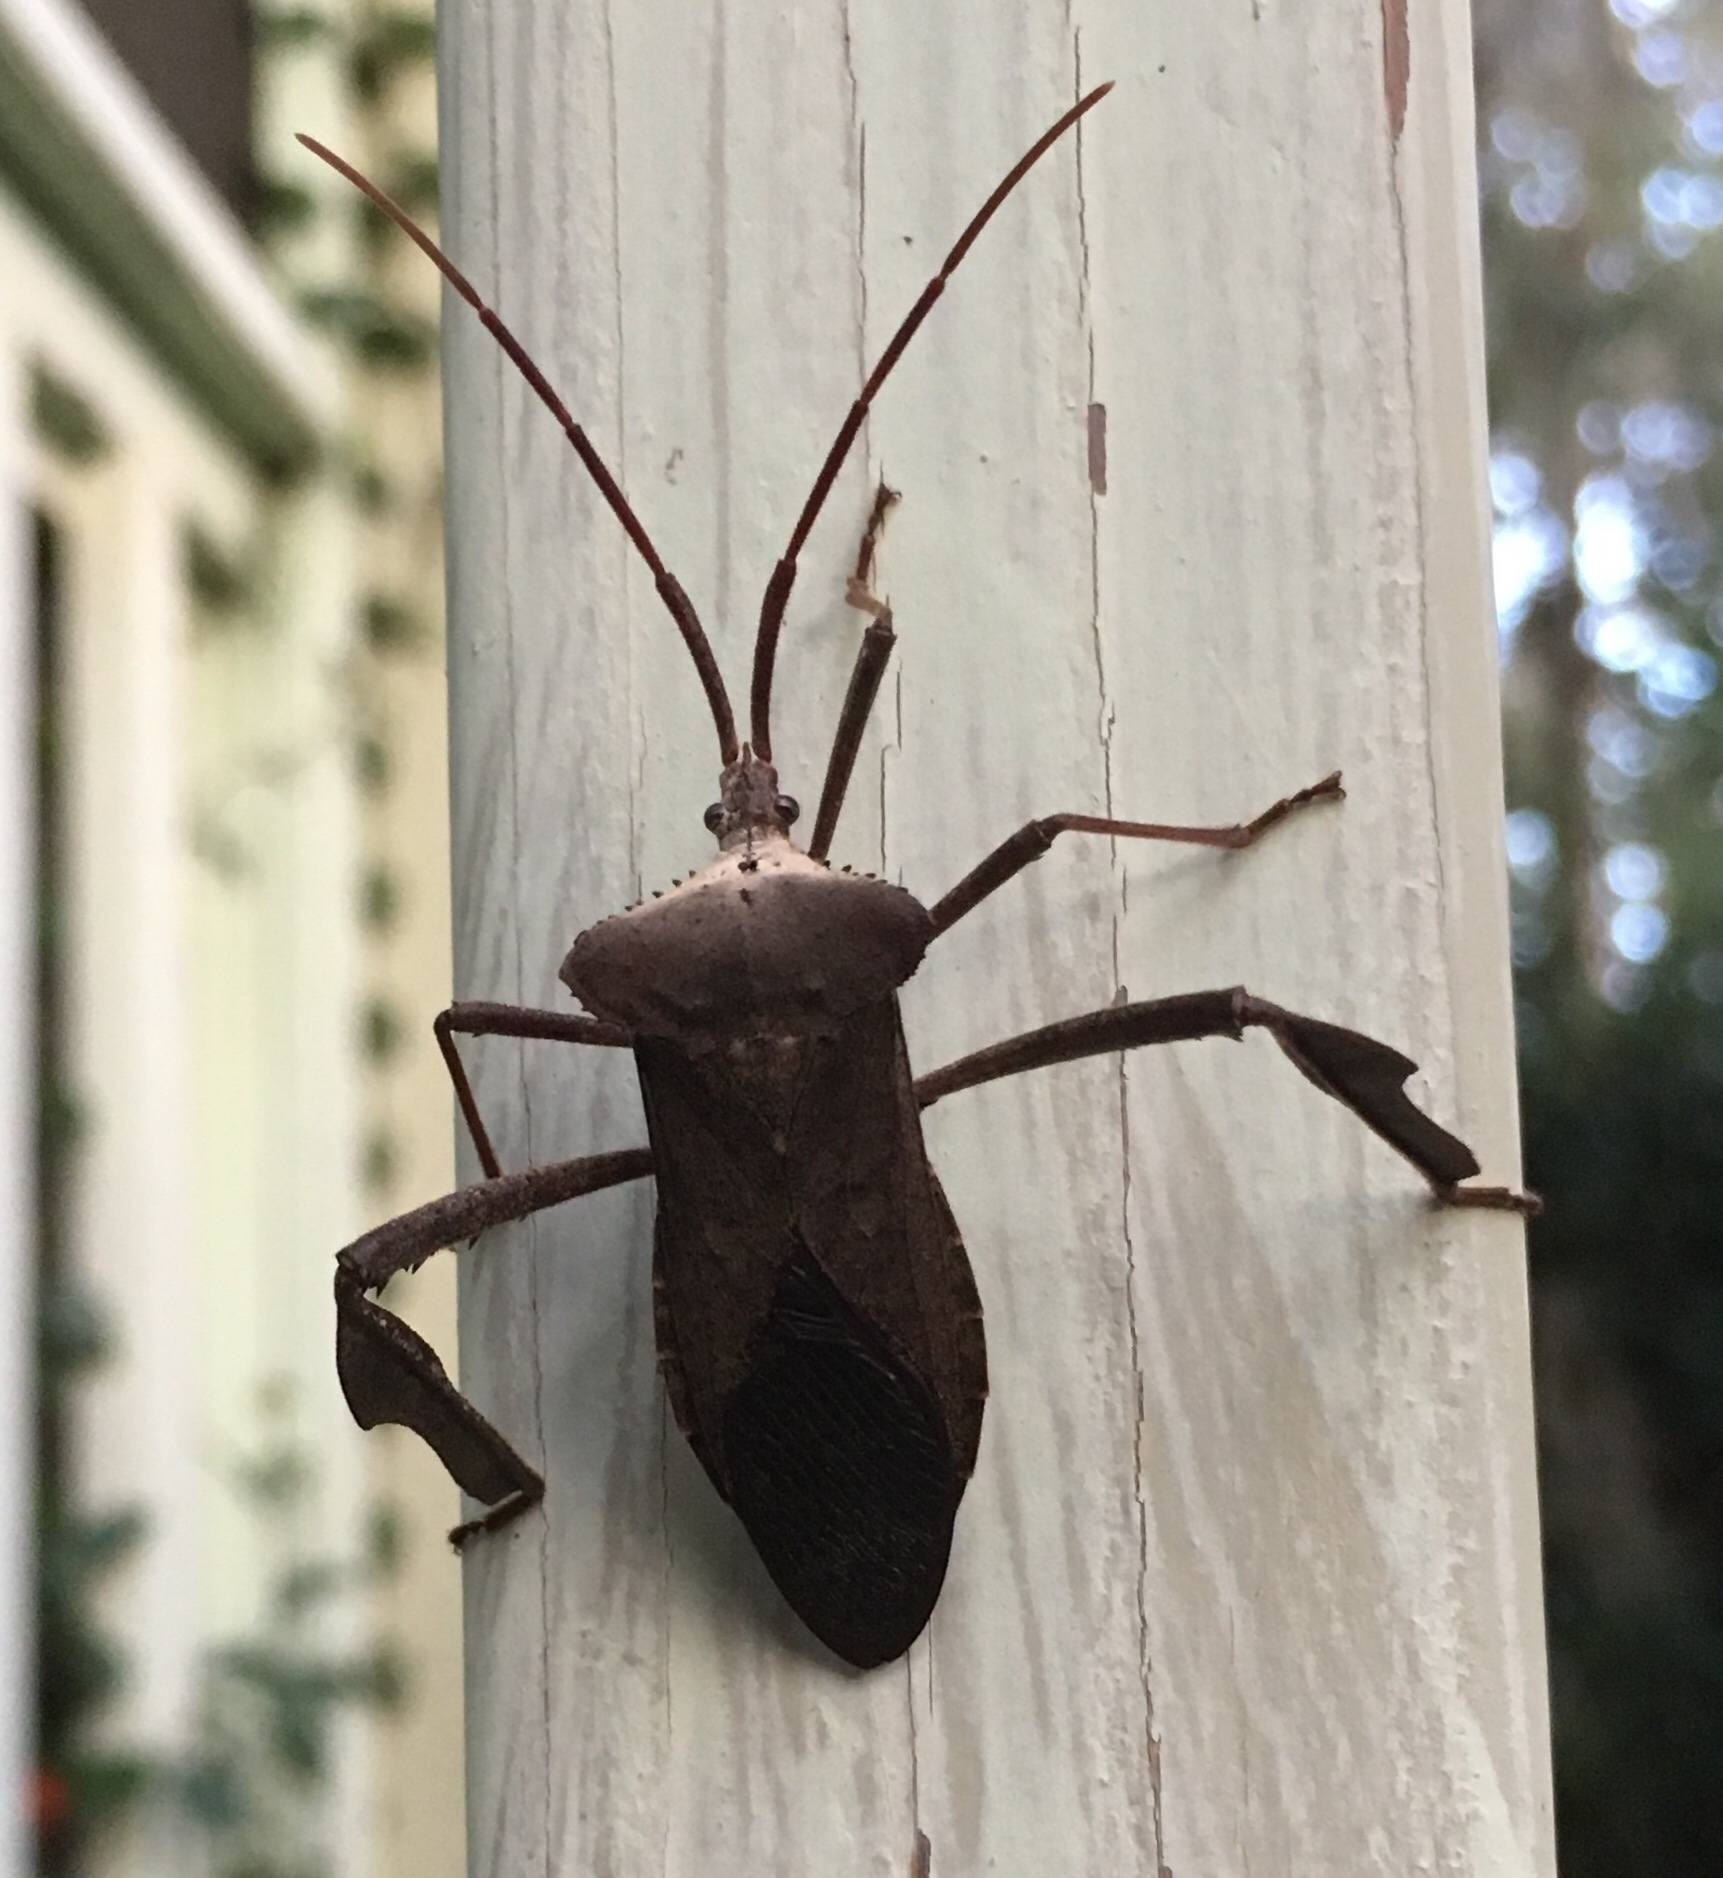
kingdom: Animalia
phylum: Arthropoda
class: Insecta
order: Hemiptera
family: Coreidae
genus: Acanthocephala
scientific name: Acanthocephala declivis
